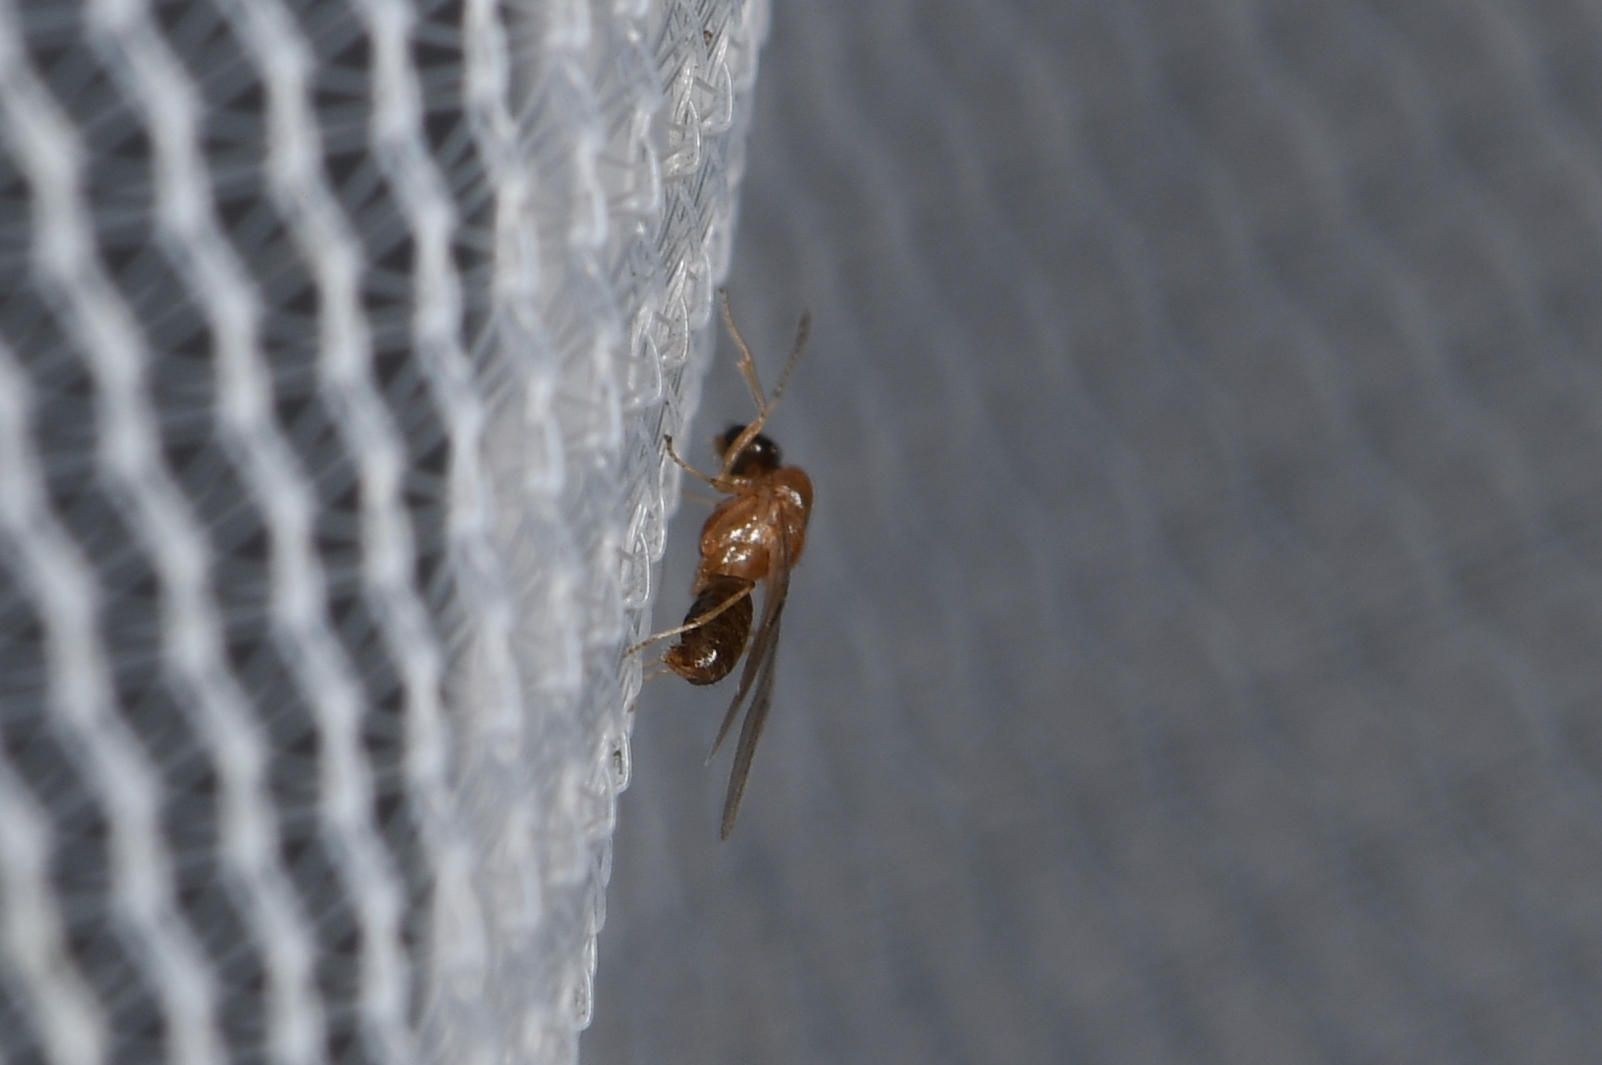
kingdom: Animalia
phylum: Arthropoda
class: Insecta
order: Hymenoptera
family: Formicidae
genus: Brachymyrmex
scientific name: Brachymyrmex patagonicus
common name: Dark rover ant
